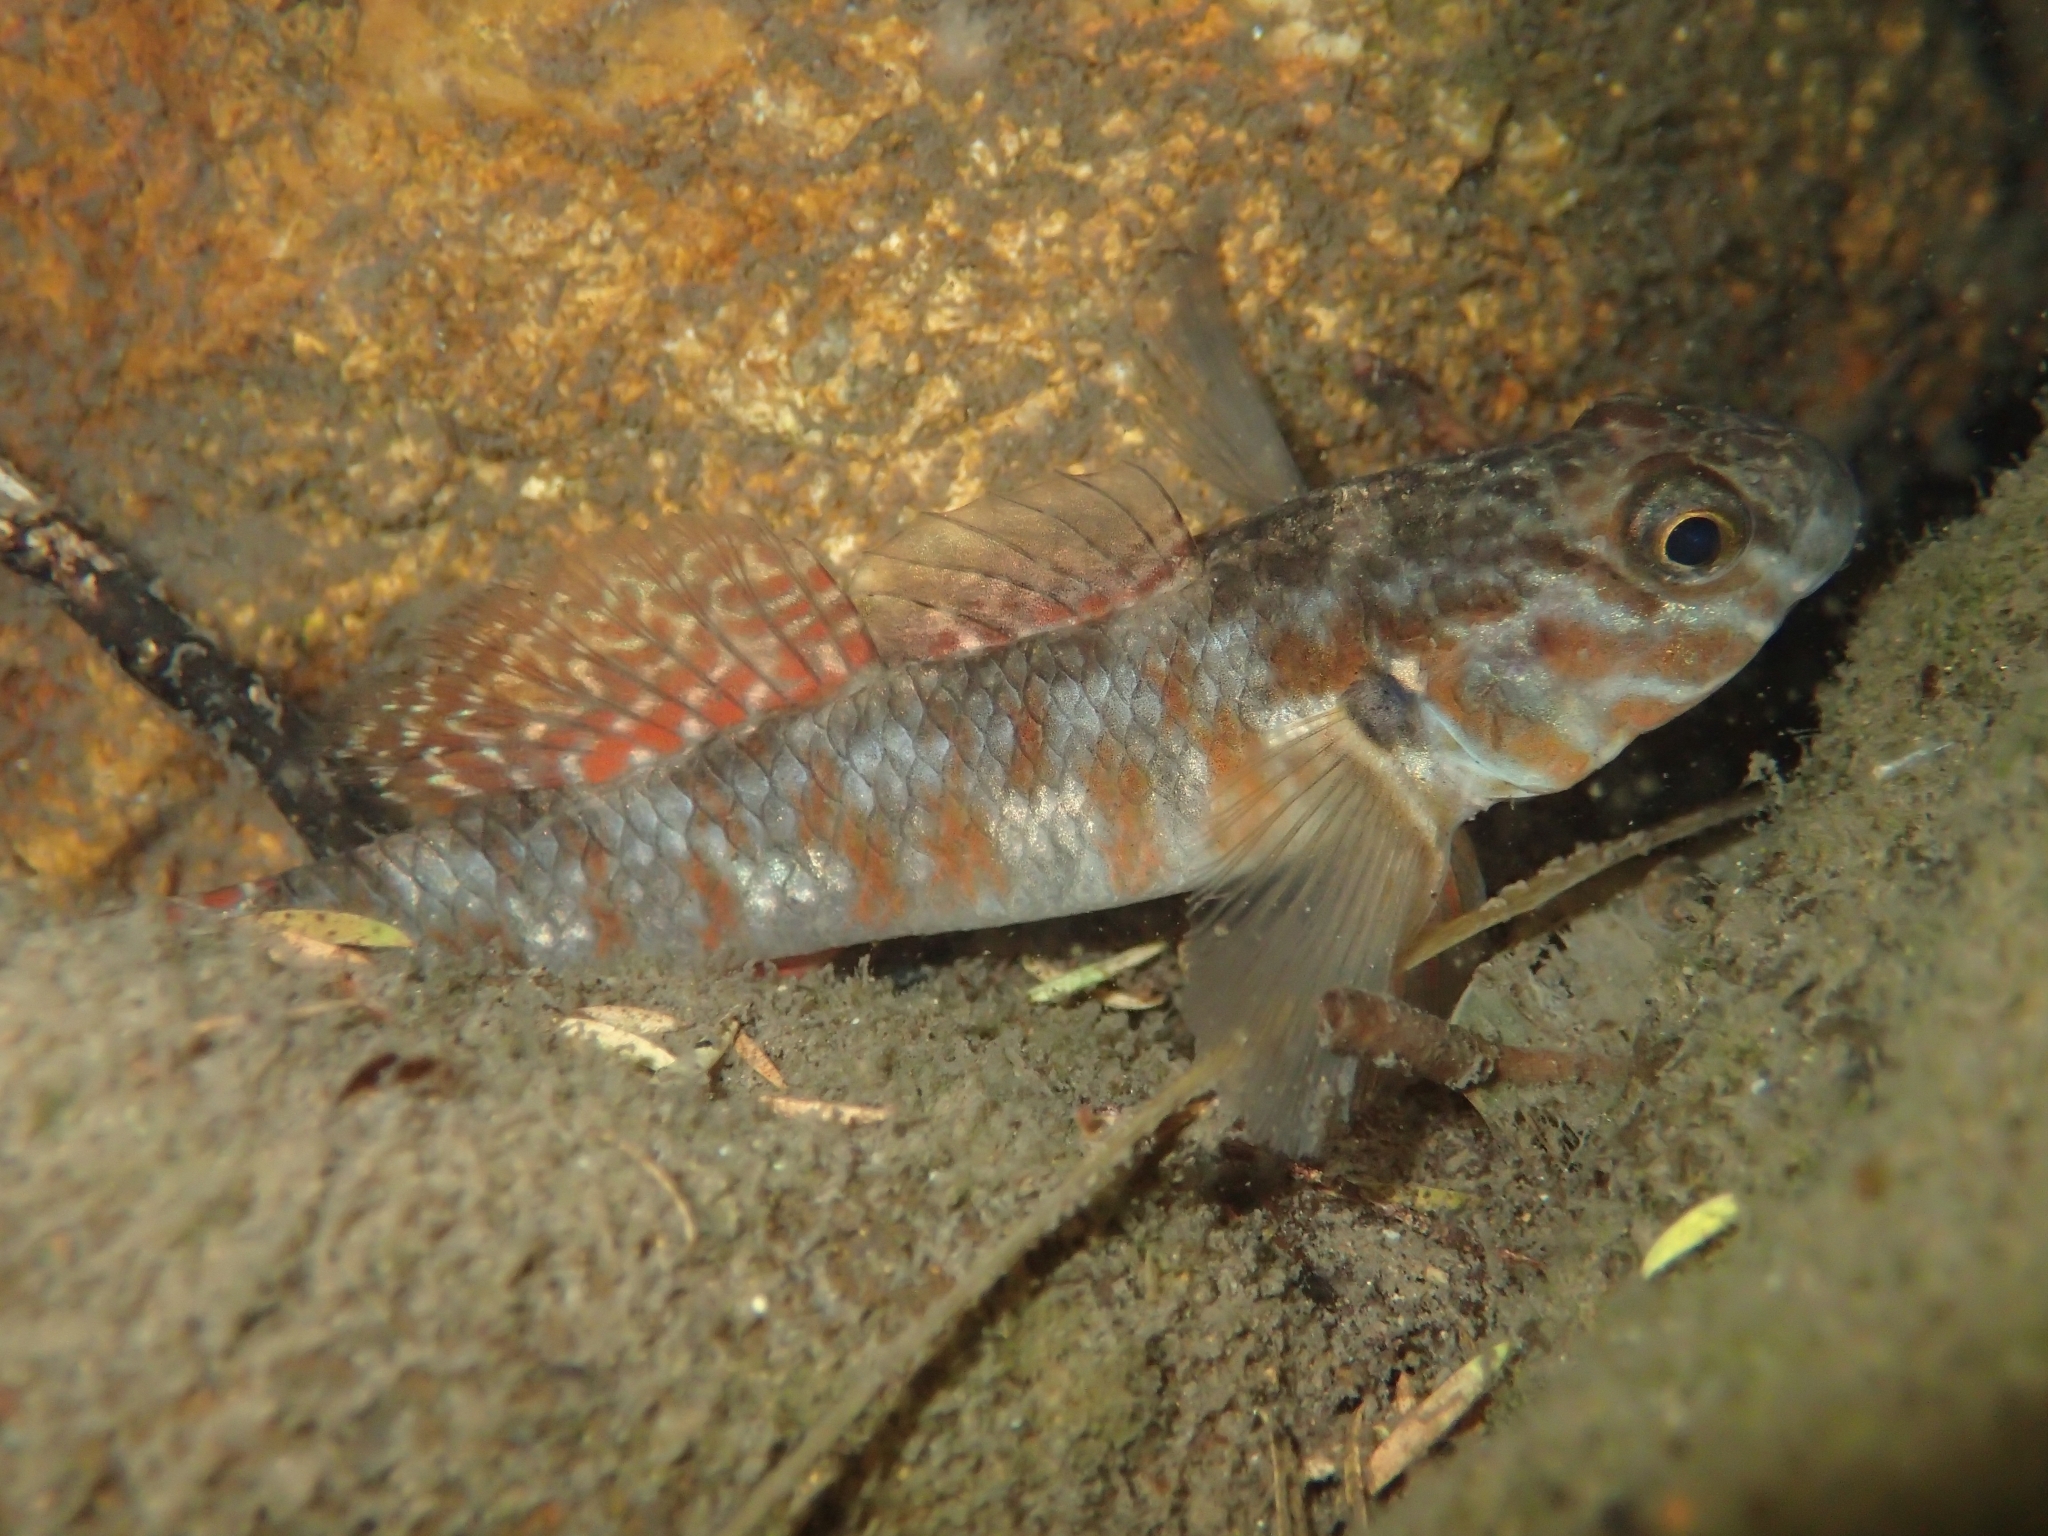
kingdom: Animalia
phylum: Chordata
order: Perciformes
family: Eleotridae
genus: Gobiomorphus
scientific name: Gobiomorphus huttoni
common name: Redfin bully
